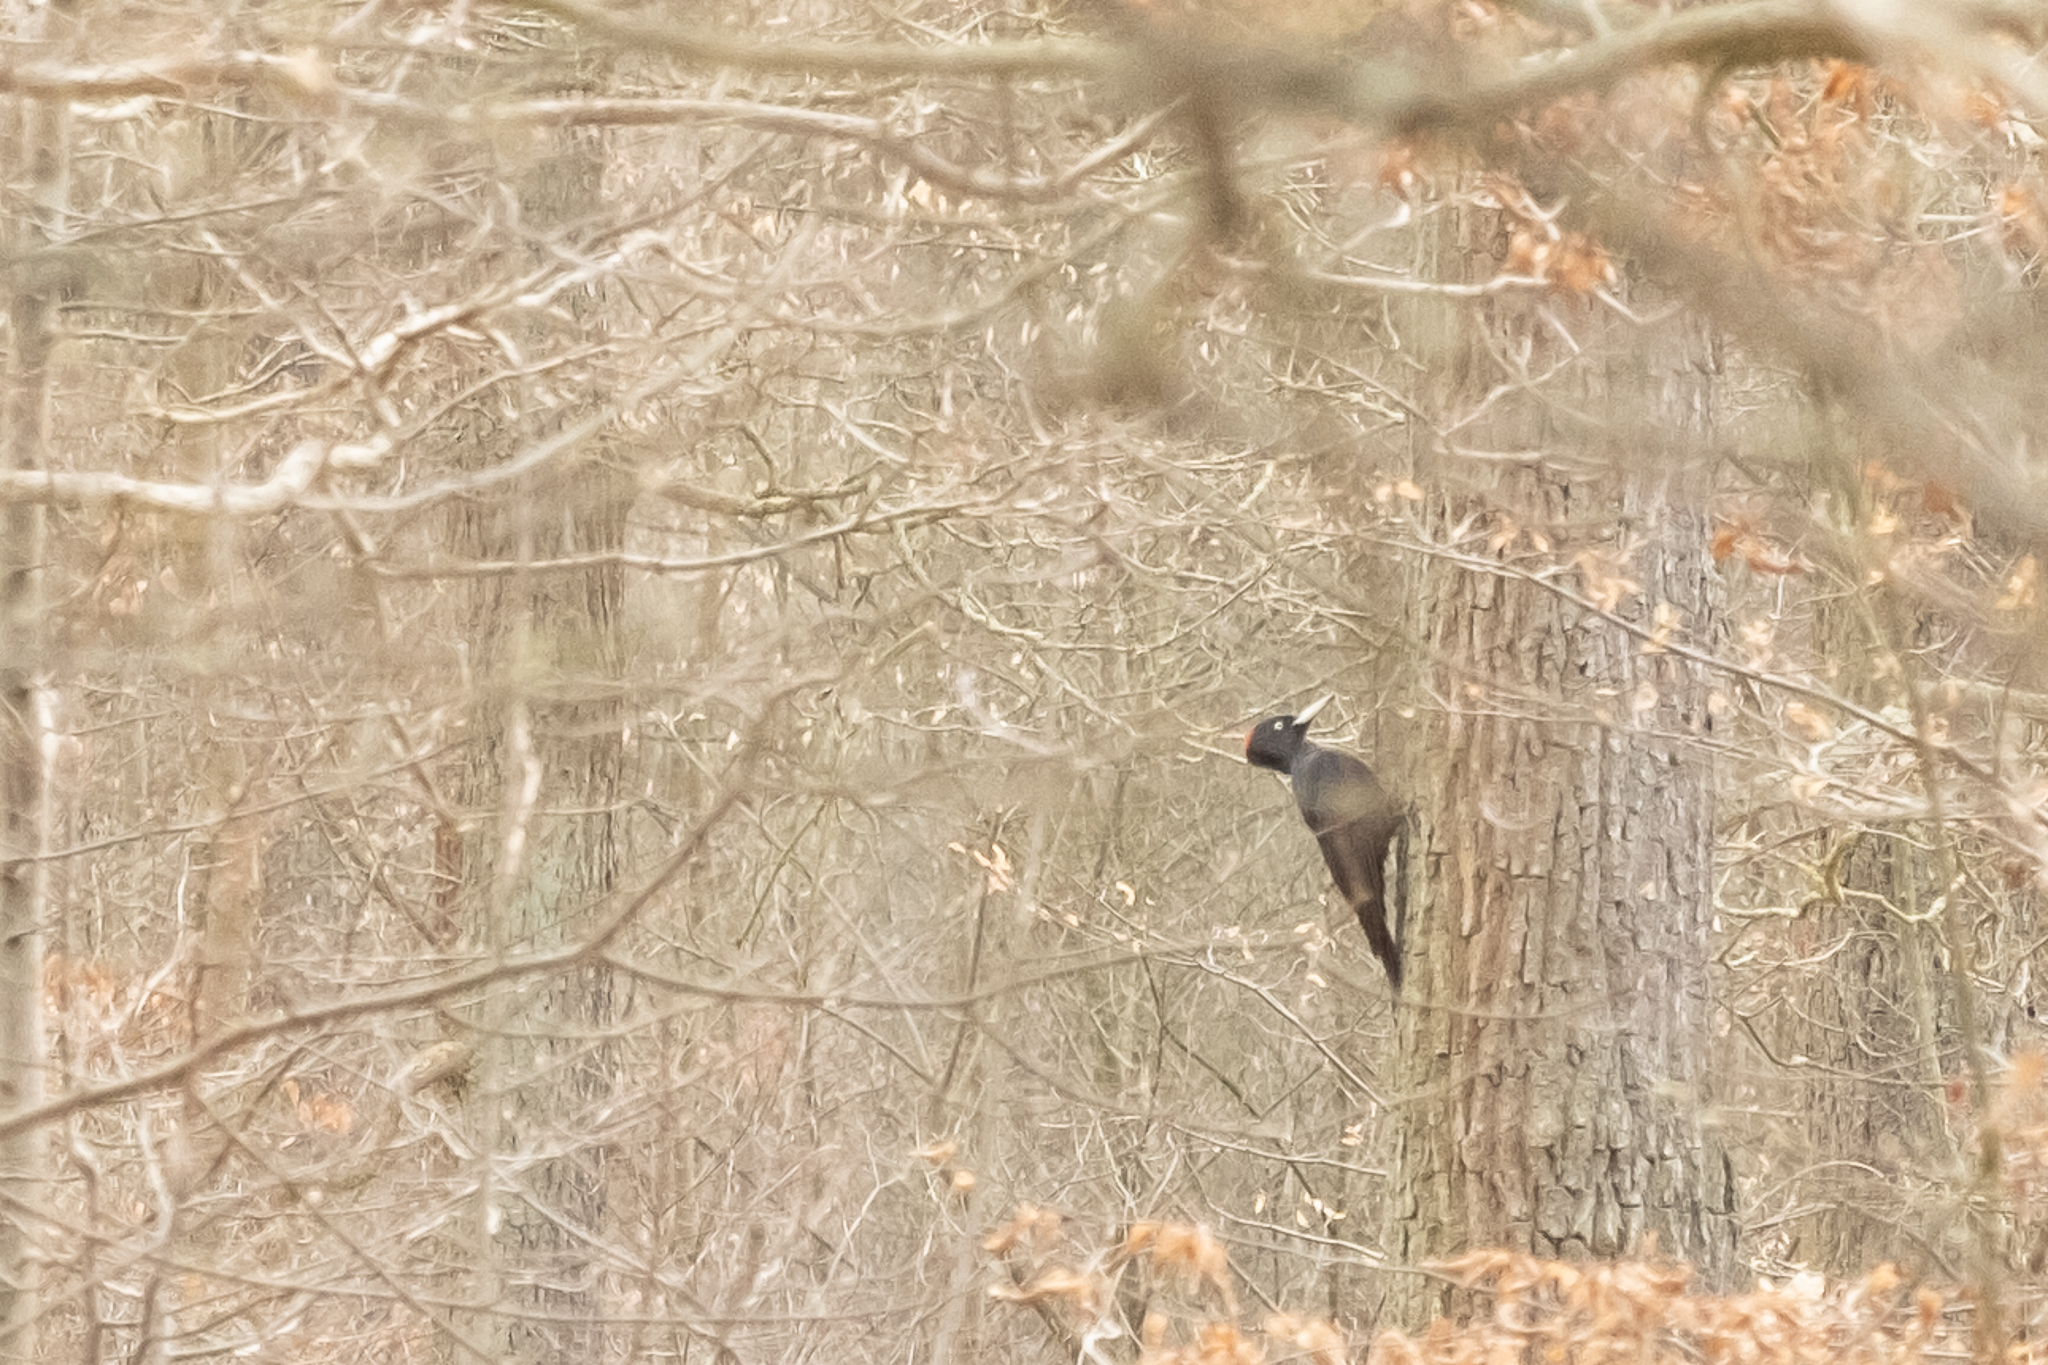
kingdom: Animalia
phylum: Chordata
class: Aves
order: Piciformes
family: Picidae
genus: Dryocopus
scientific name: Dryocopus martius
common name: Black woodpecker
